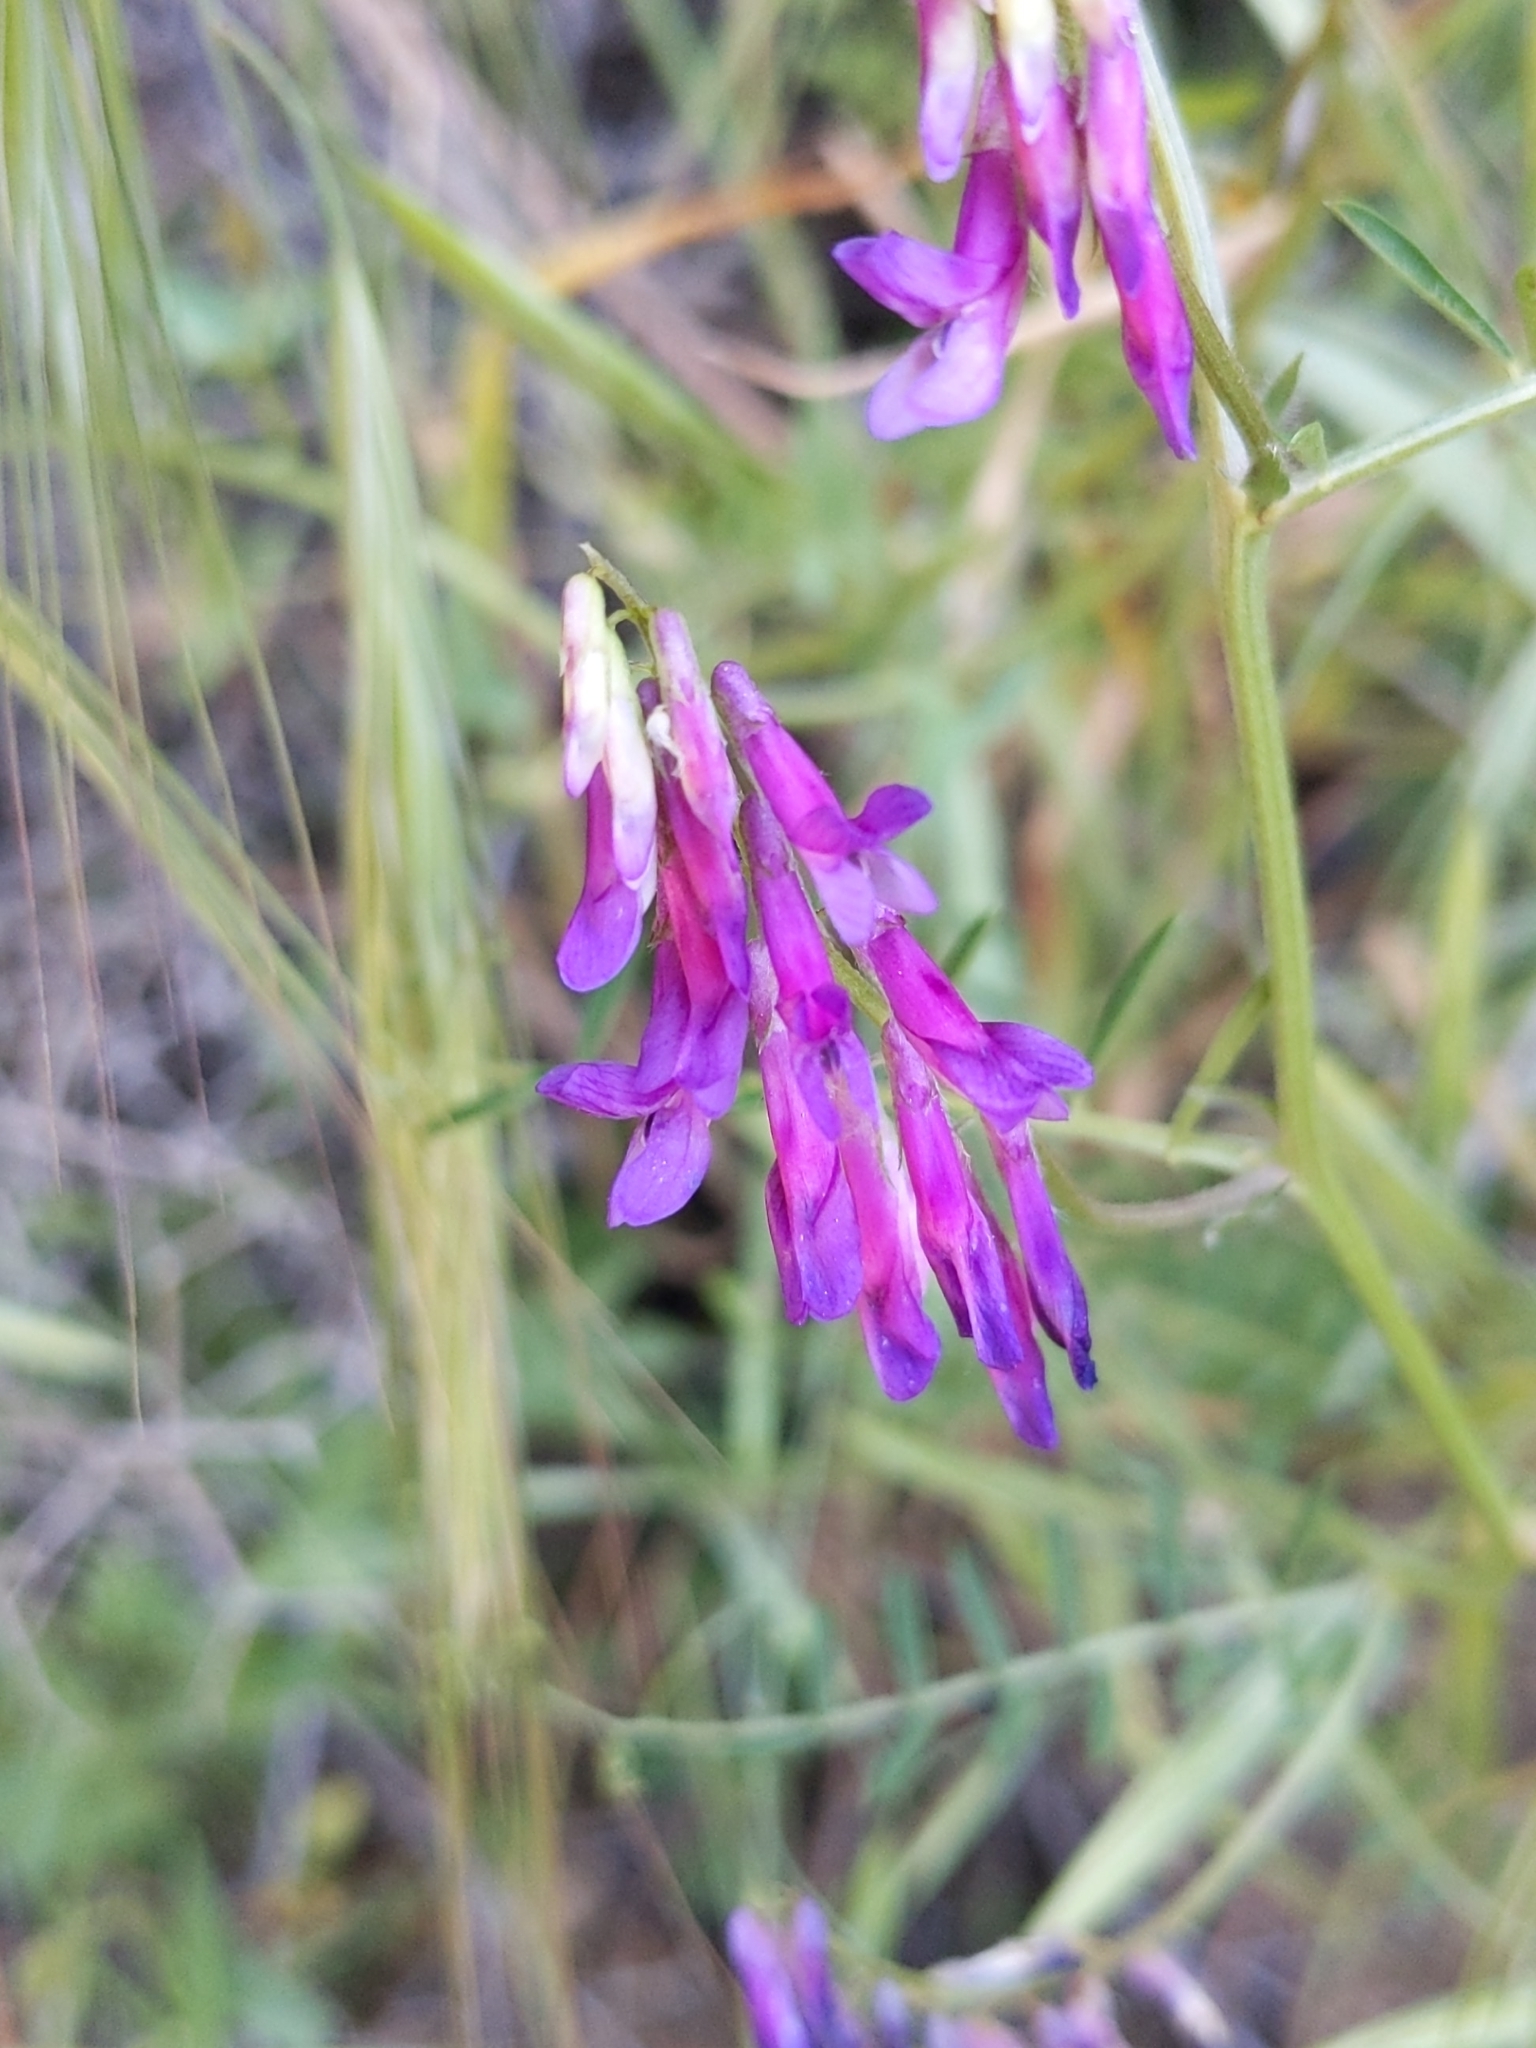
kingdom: Plantae
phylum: Tracheophyta
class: Magnoliopsida
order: Fabales
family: Fabaceae
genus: Vicia
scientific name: Vicia villosa
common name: Fodder vetch
